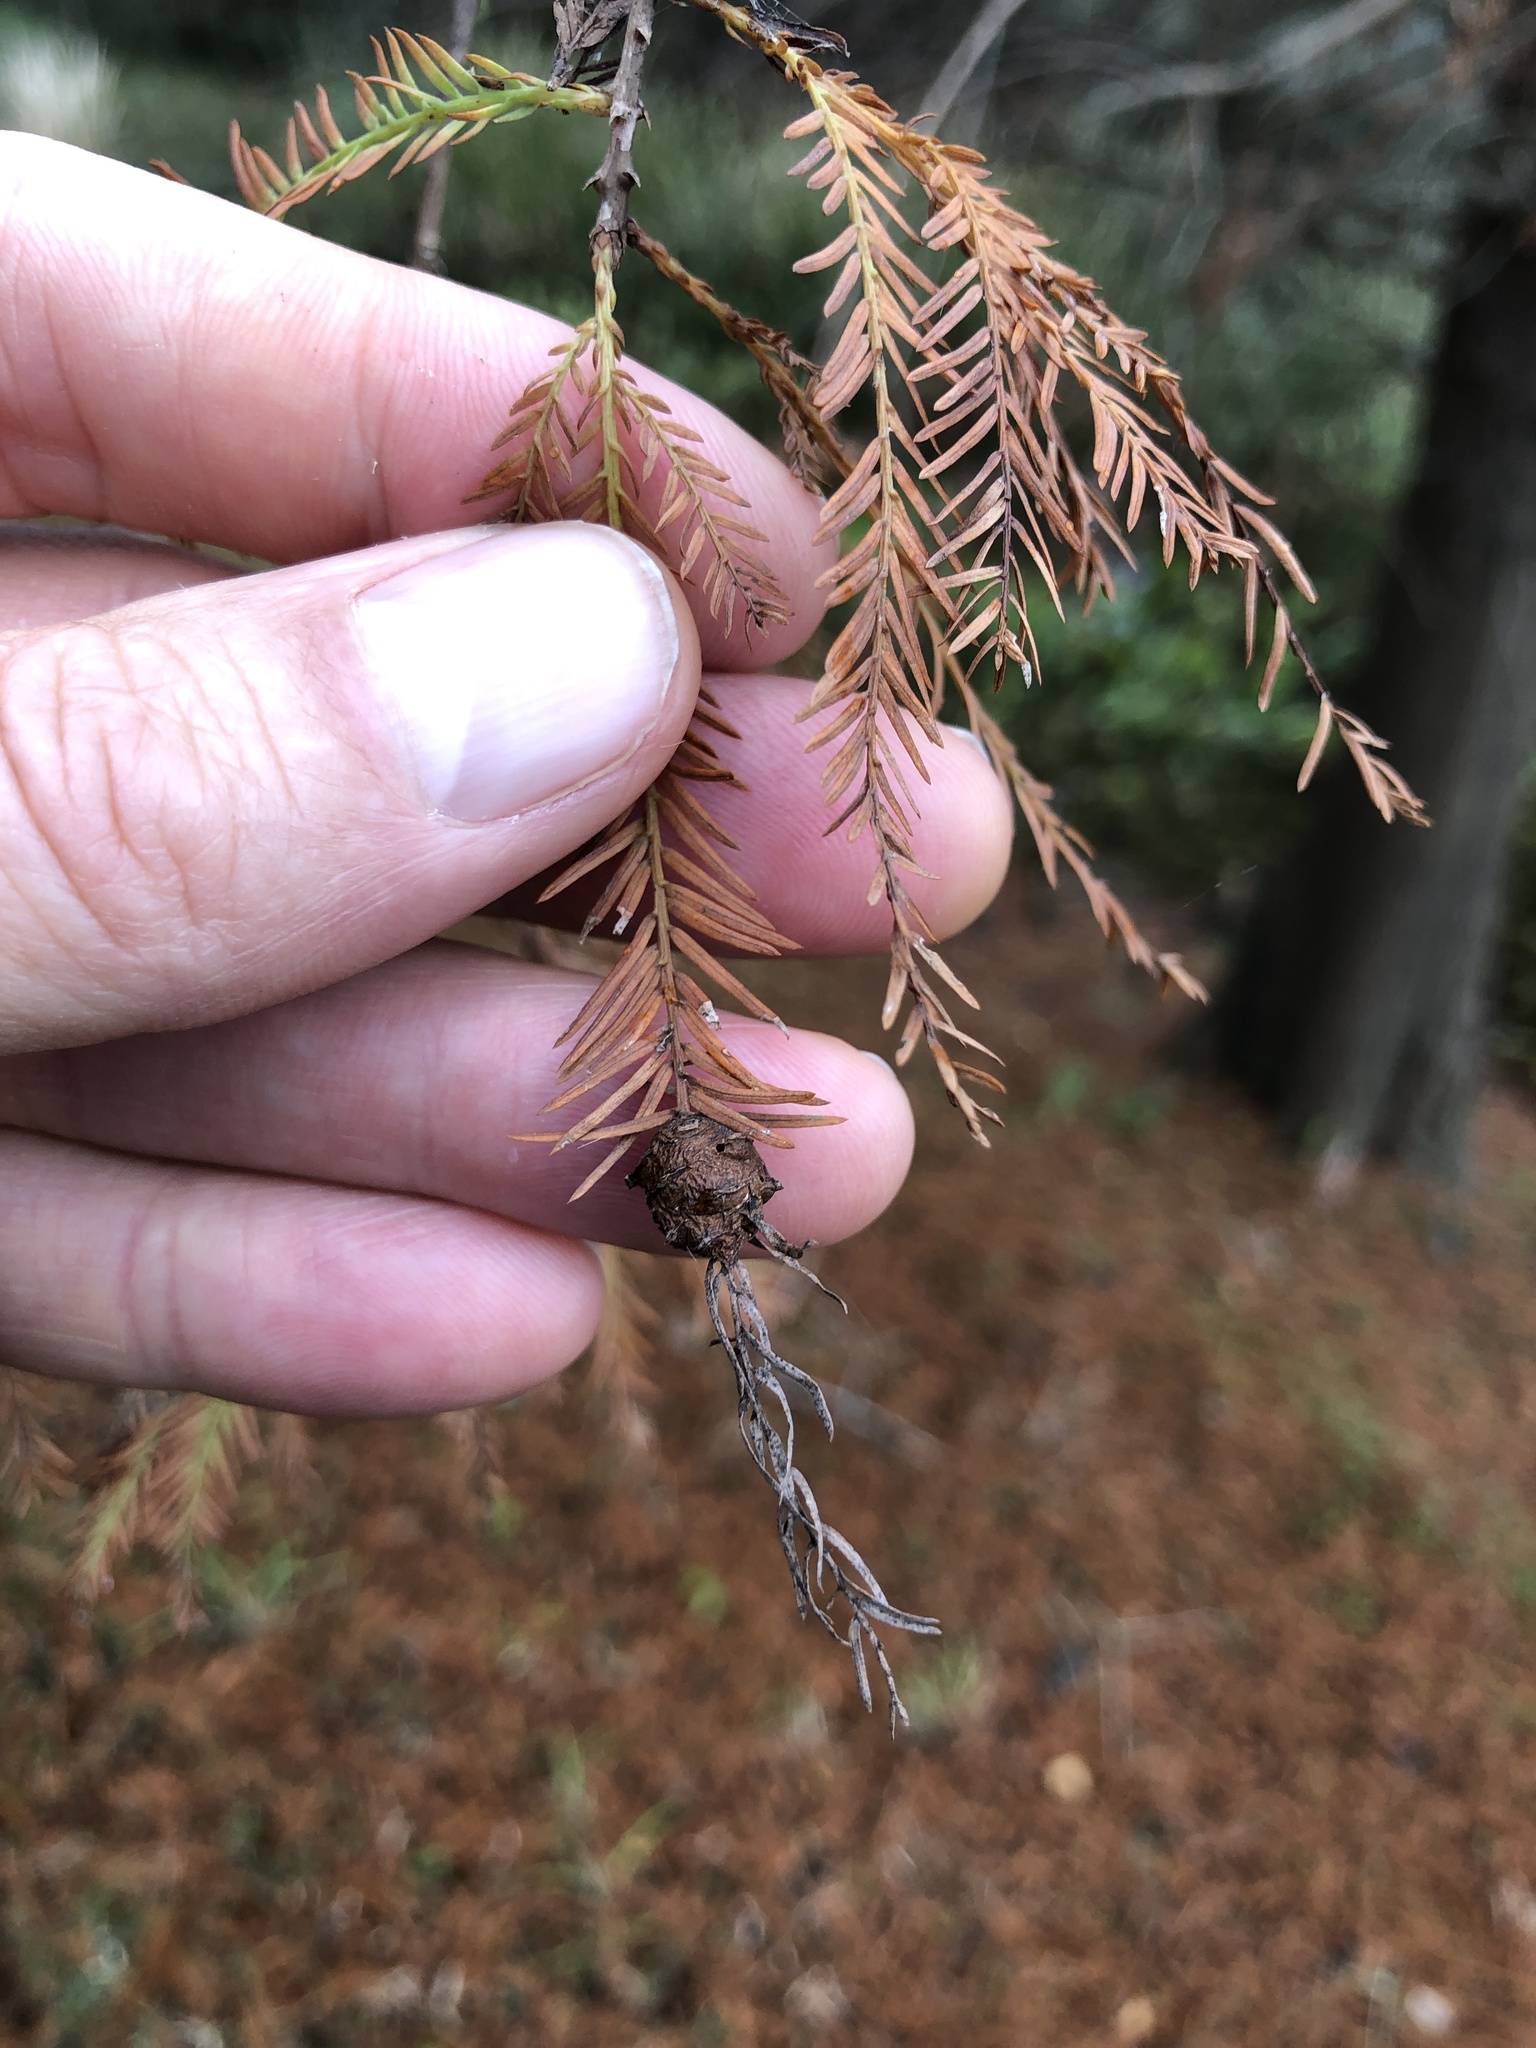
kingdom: Animalia
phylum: Arthropoda
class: Insecta
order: Diptera
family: Cecidomyiidae
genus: Taxodiomyia
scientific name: Taxodiomyia cupressiananassa
